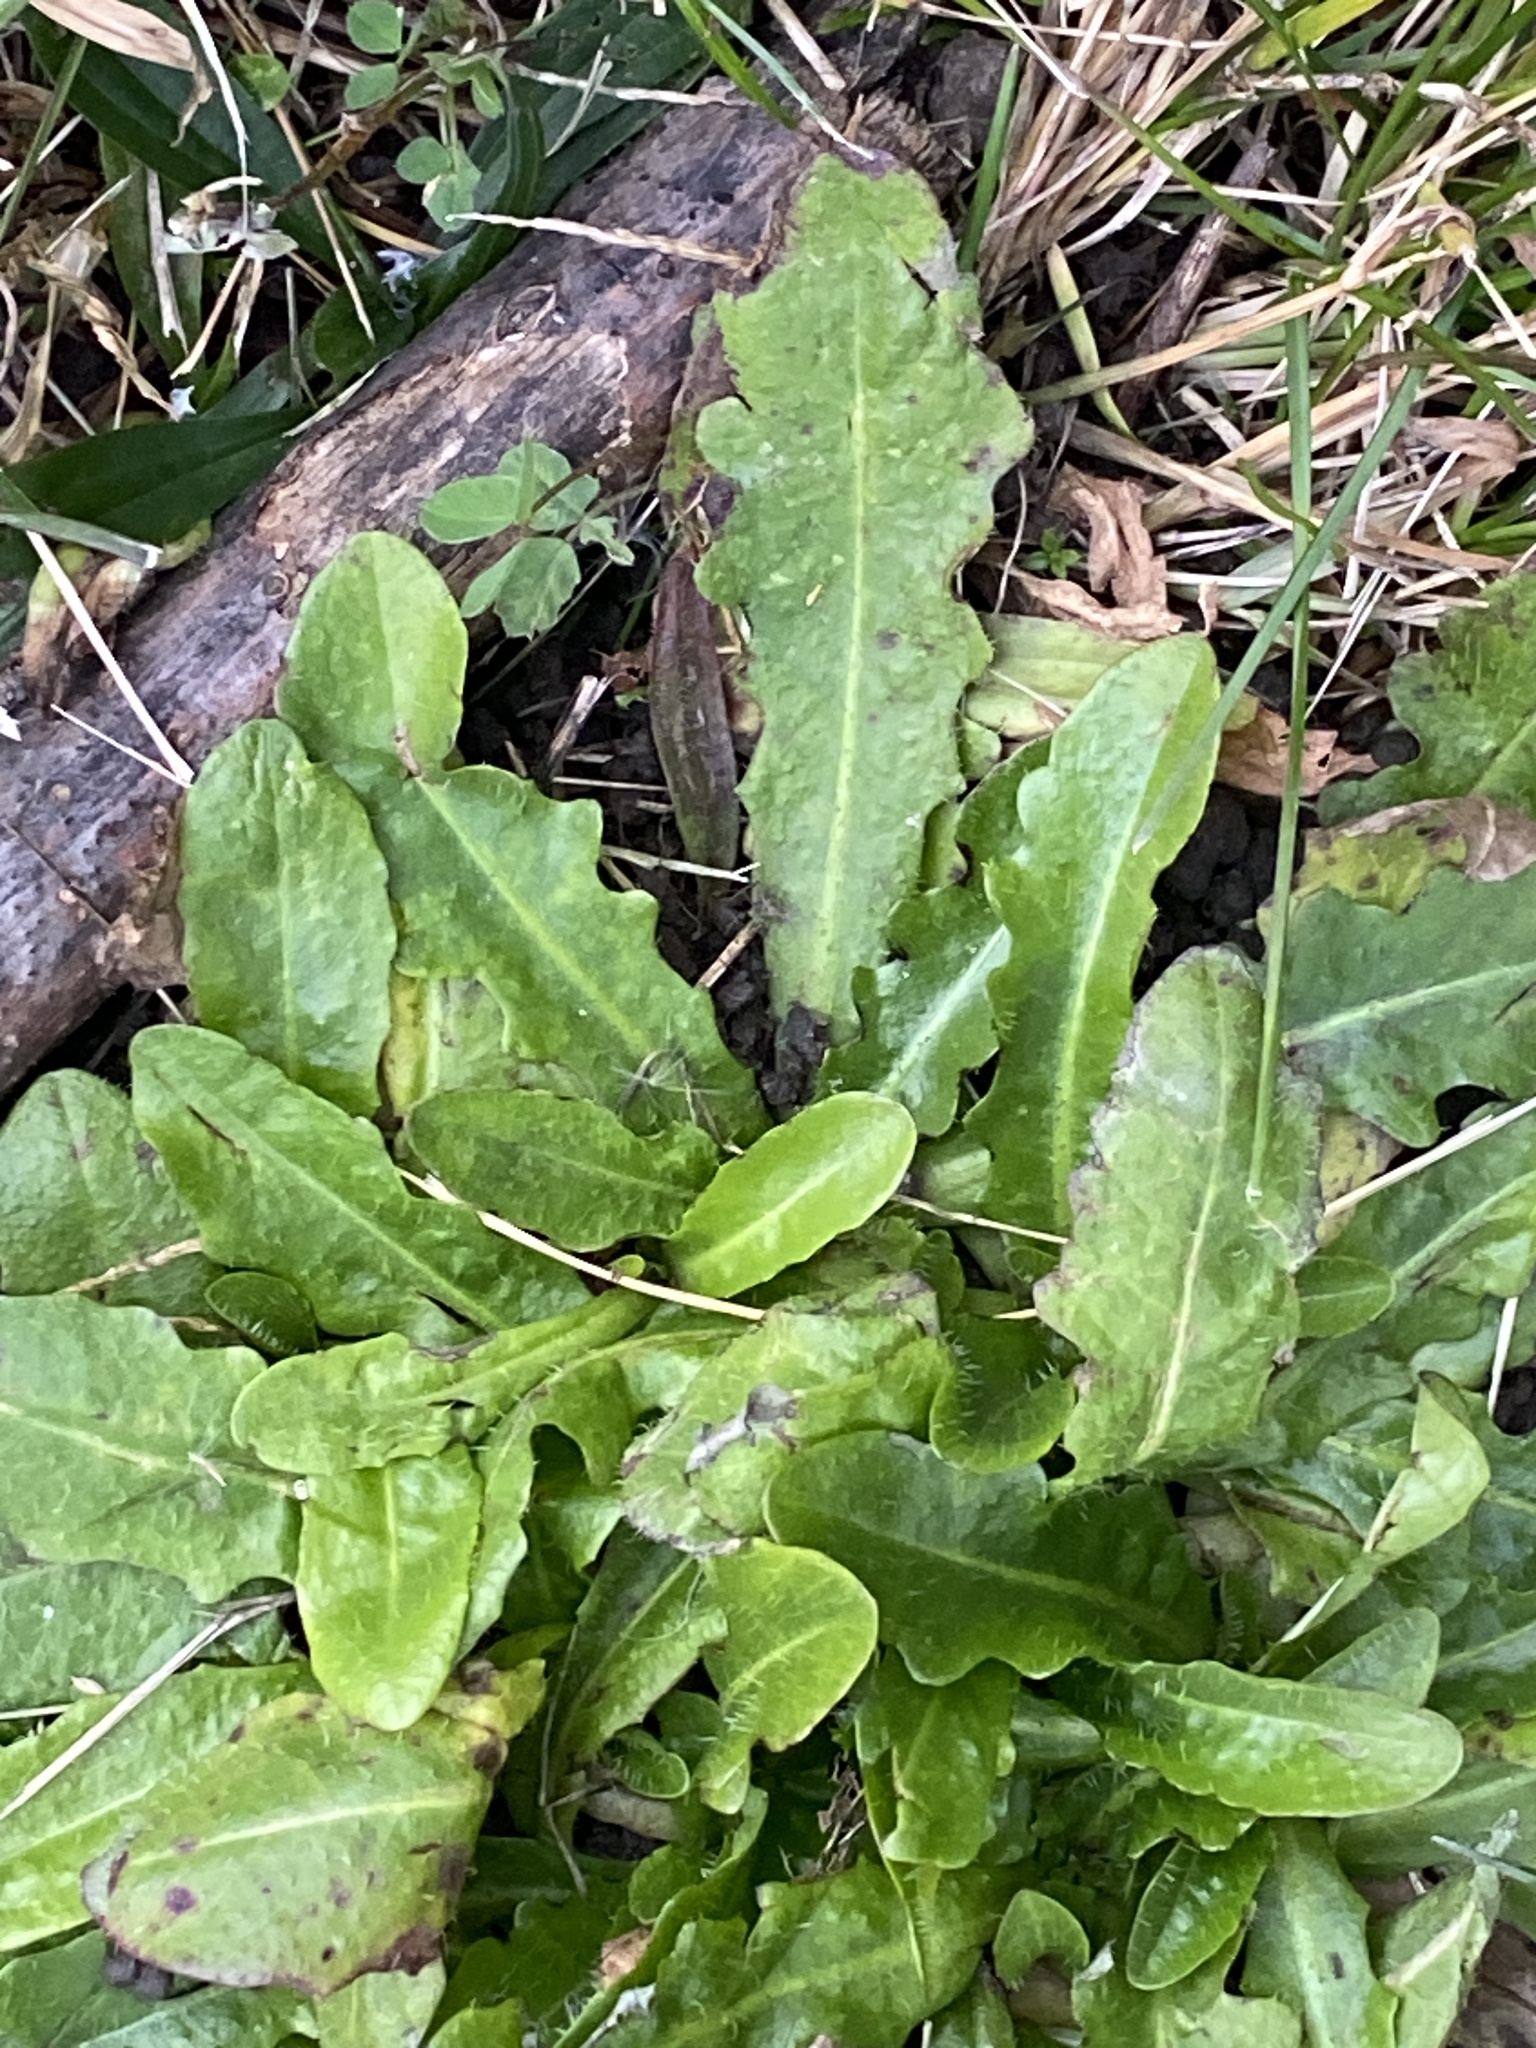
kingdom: Plantae
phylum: Tracheophyta
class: Magnoliopsida
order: Asterales
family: Asteraceae
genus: Hypochaeris
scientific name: Hypochaeris radicata
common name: Flatweed
